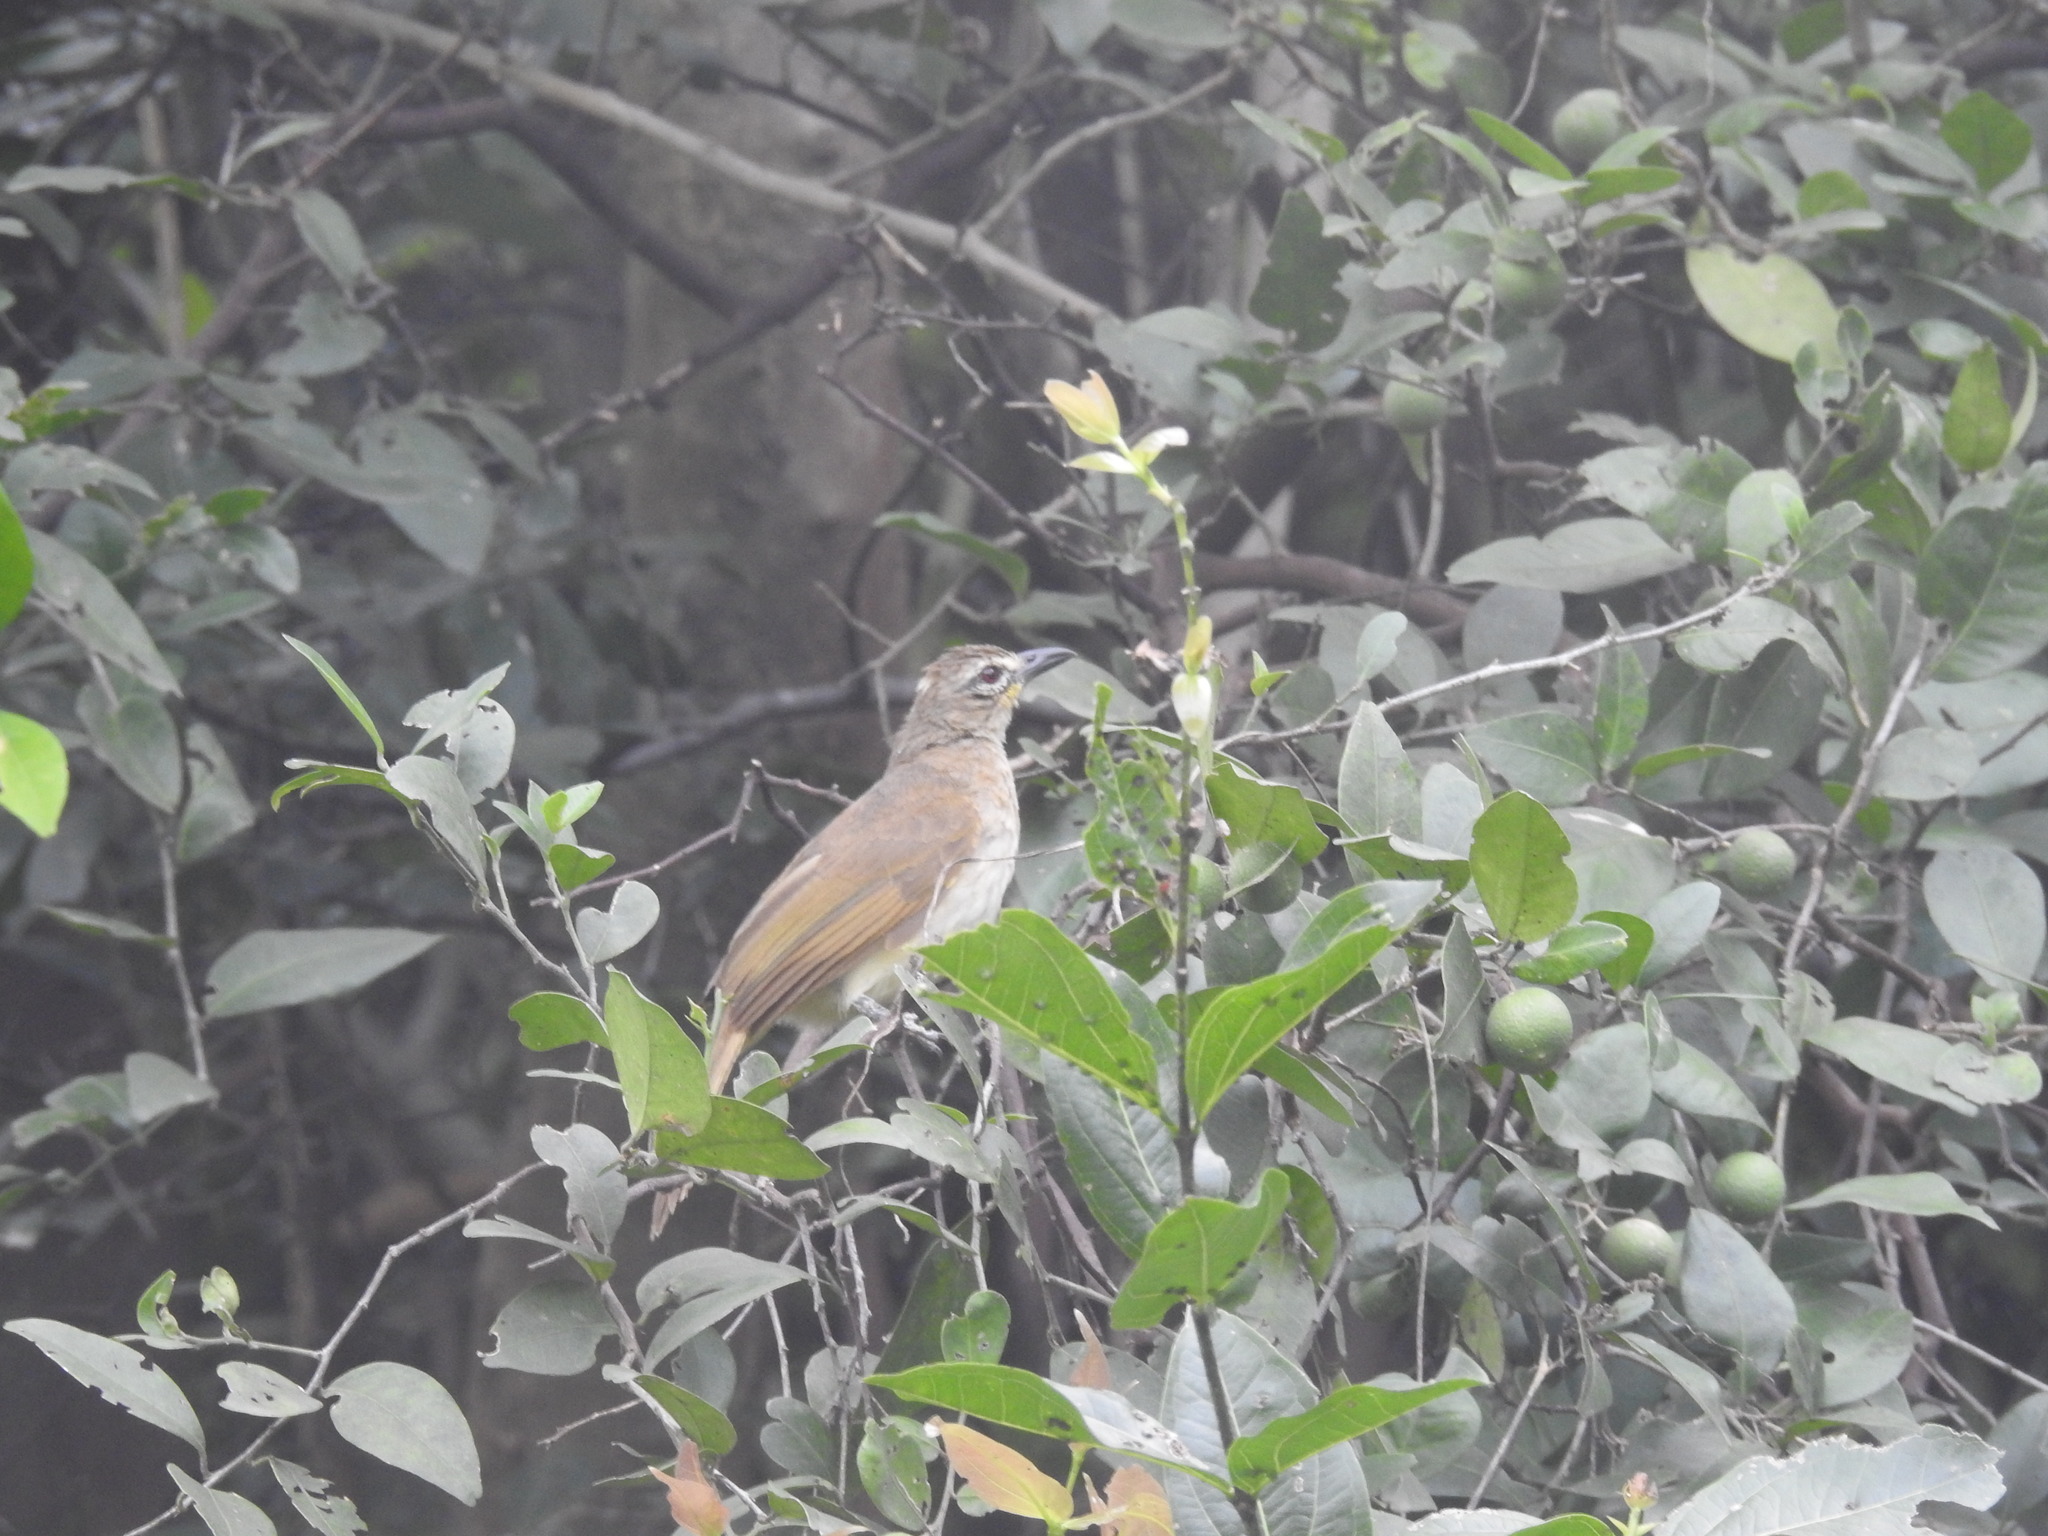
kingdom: Animalia
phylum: Chordata
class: Aves
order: Passeriformes
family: Pycnonotidae
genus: Pycnonotus
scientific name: Pycnonotus luteolus
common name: White-browed bulbul
